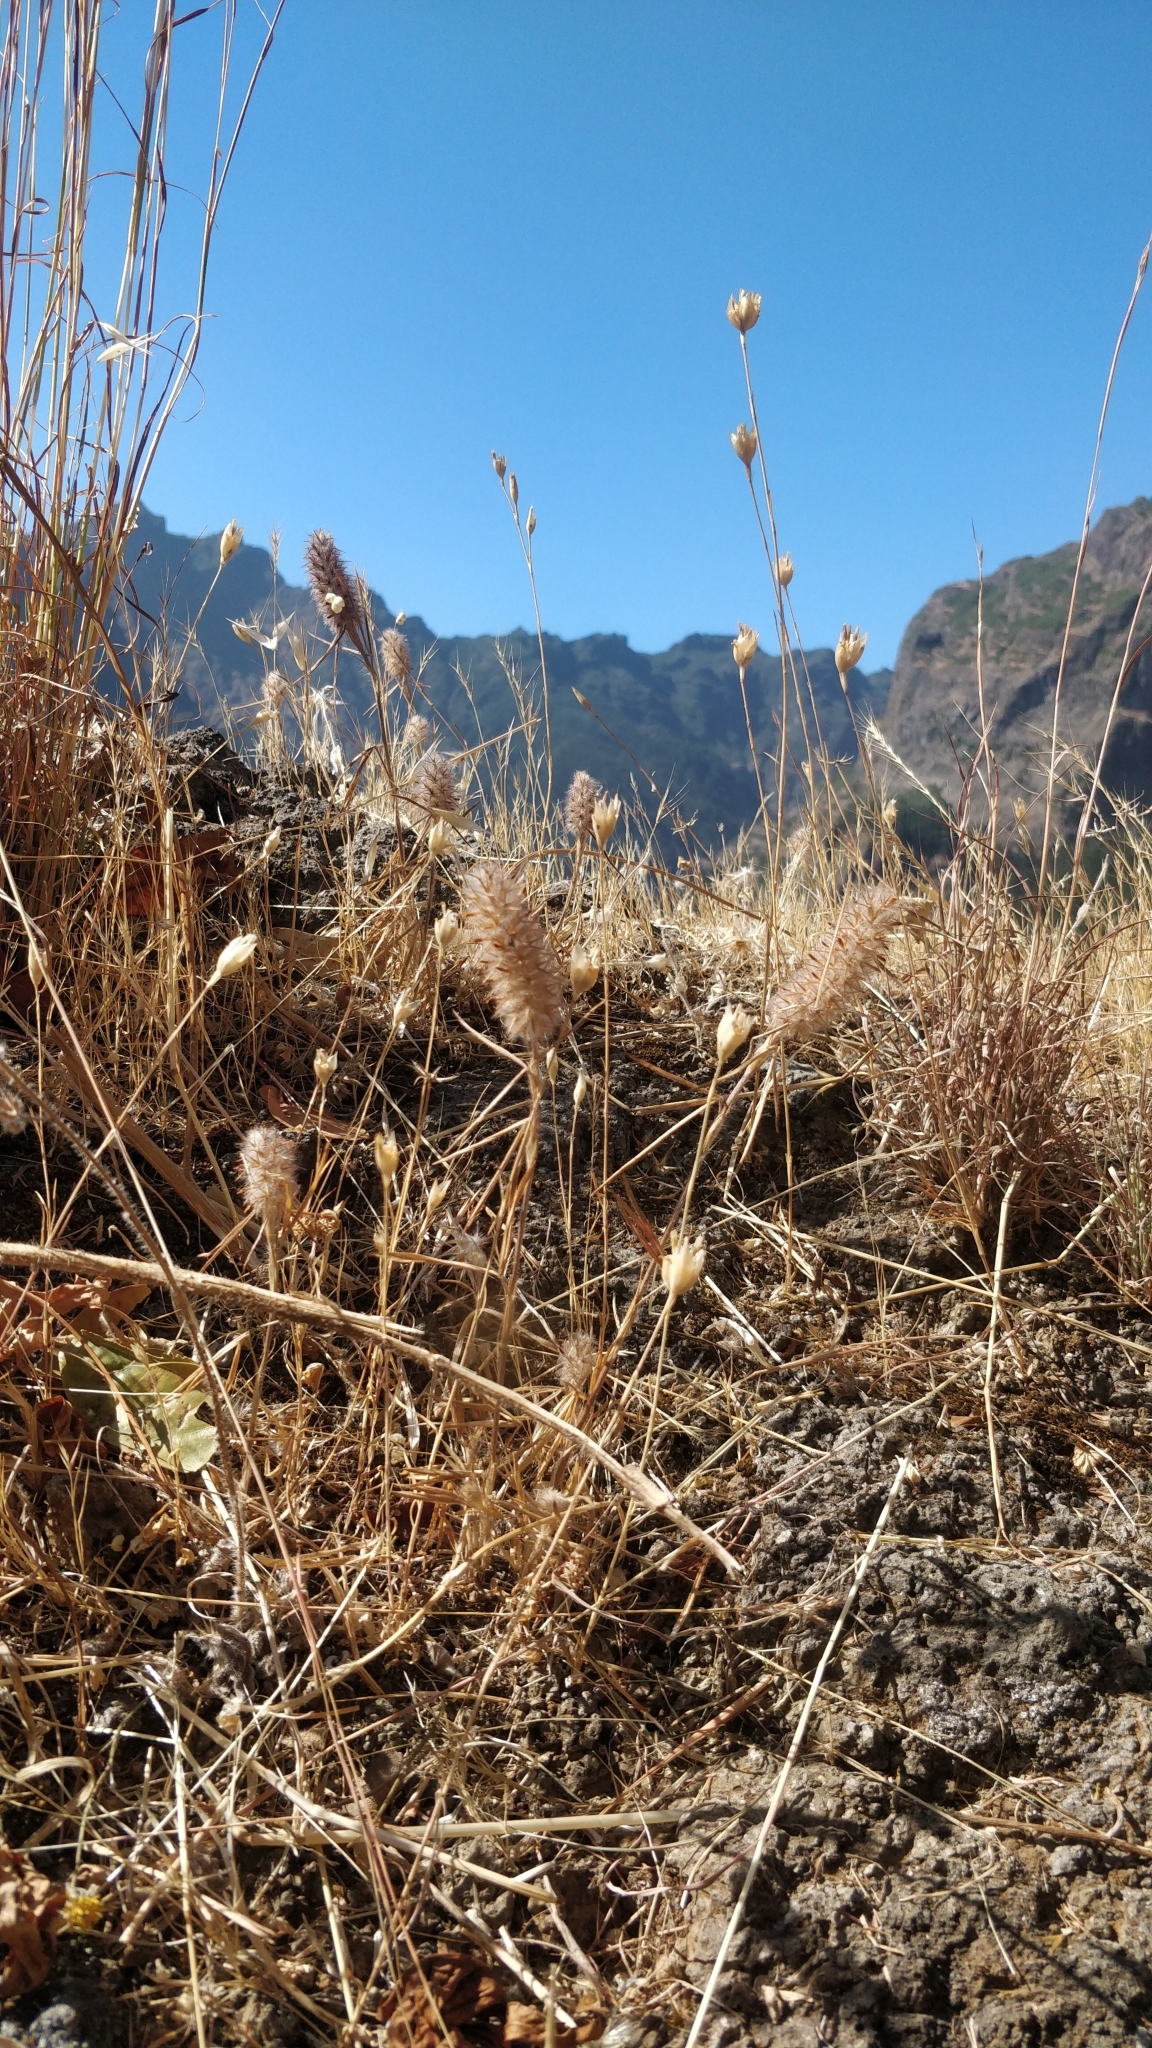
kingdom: Plantae
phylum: Tracheophyta
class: Magnoliopsida
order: Fabales
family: Fabaceae
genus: Trifolium
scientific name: Trifolium angustifolium
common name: Narrow clover
